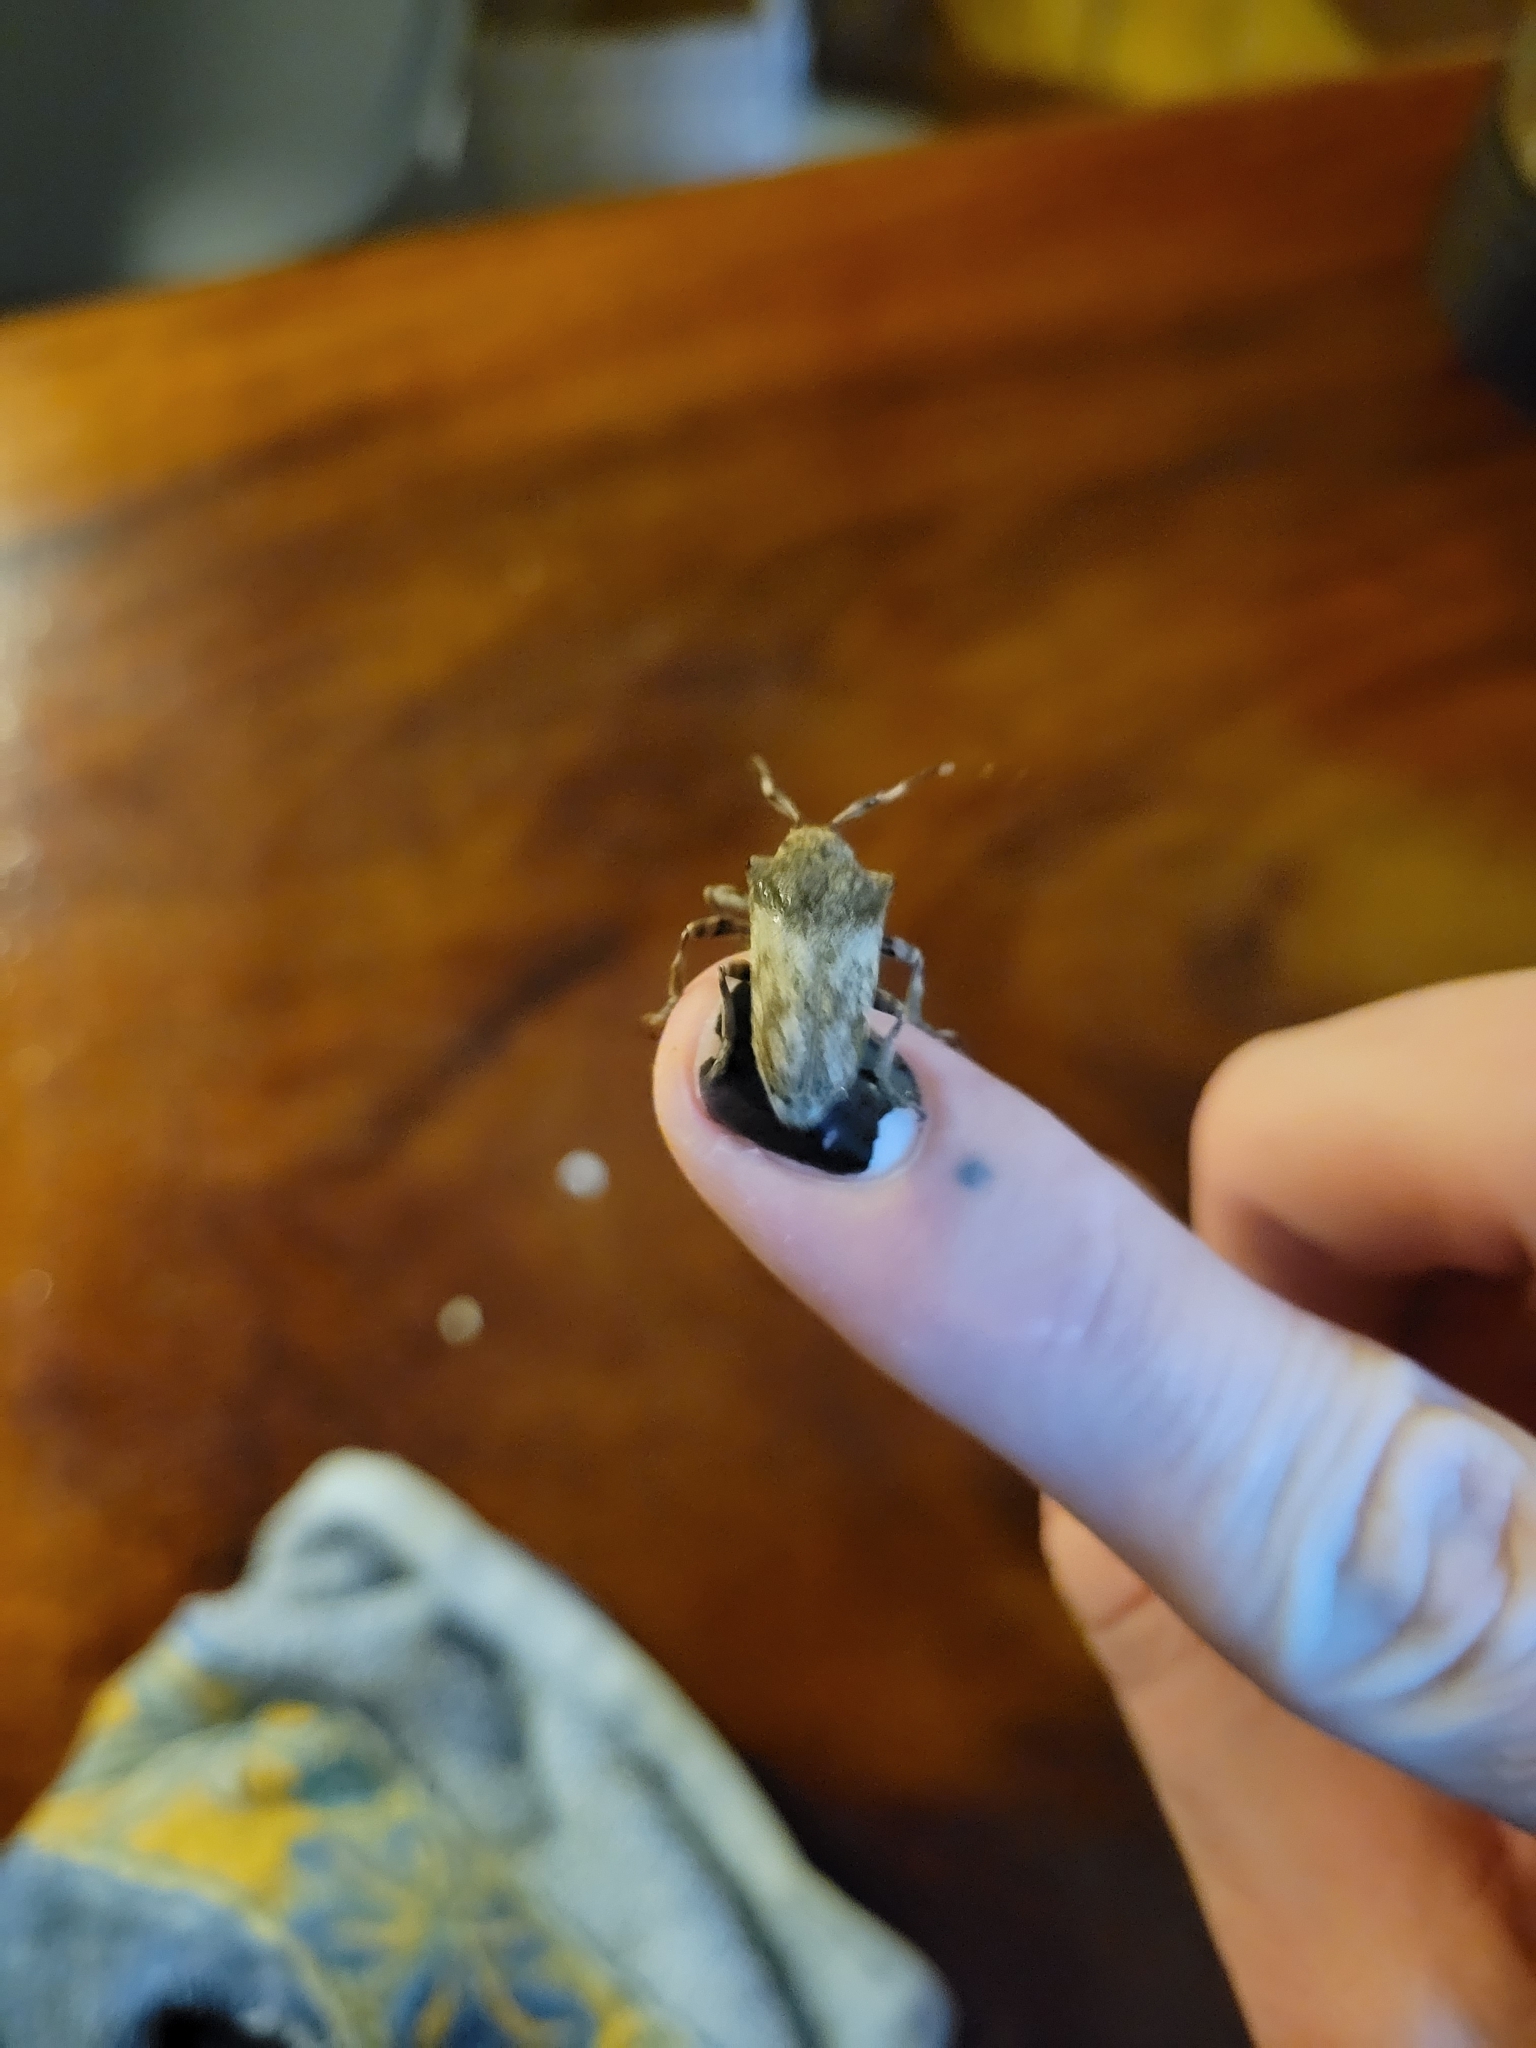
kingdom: Animalia
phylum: Arthropoda
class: Insecta
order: Coleoptera
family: Cerambycidae
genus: Tulcus
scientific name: Tulcus lycimnius
